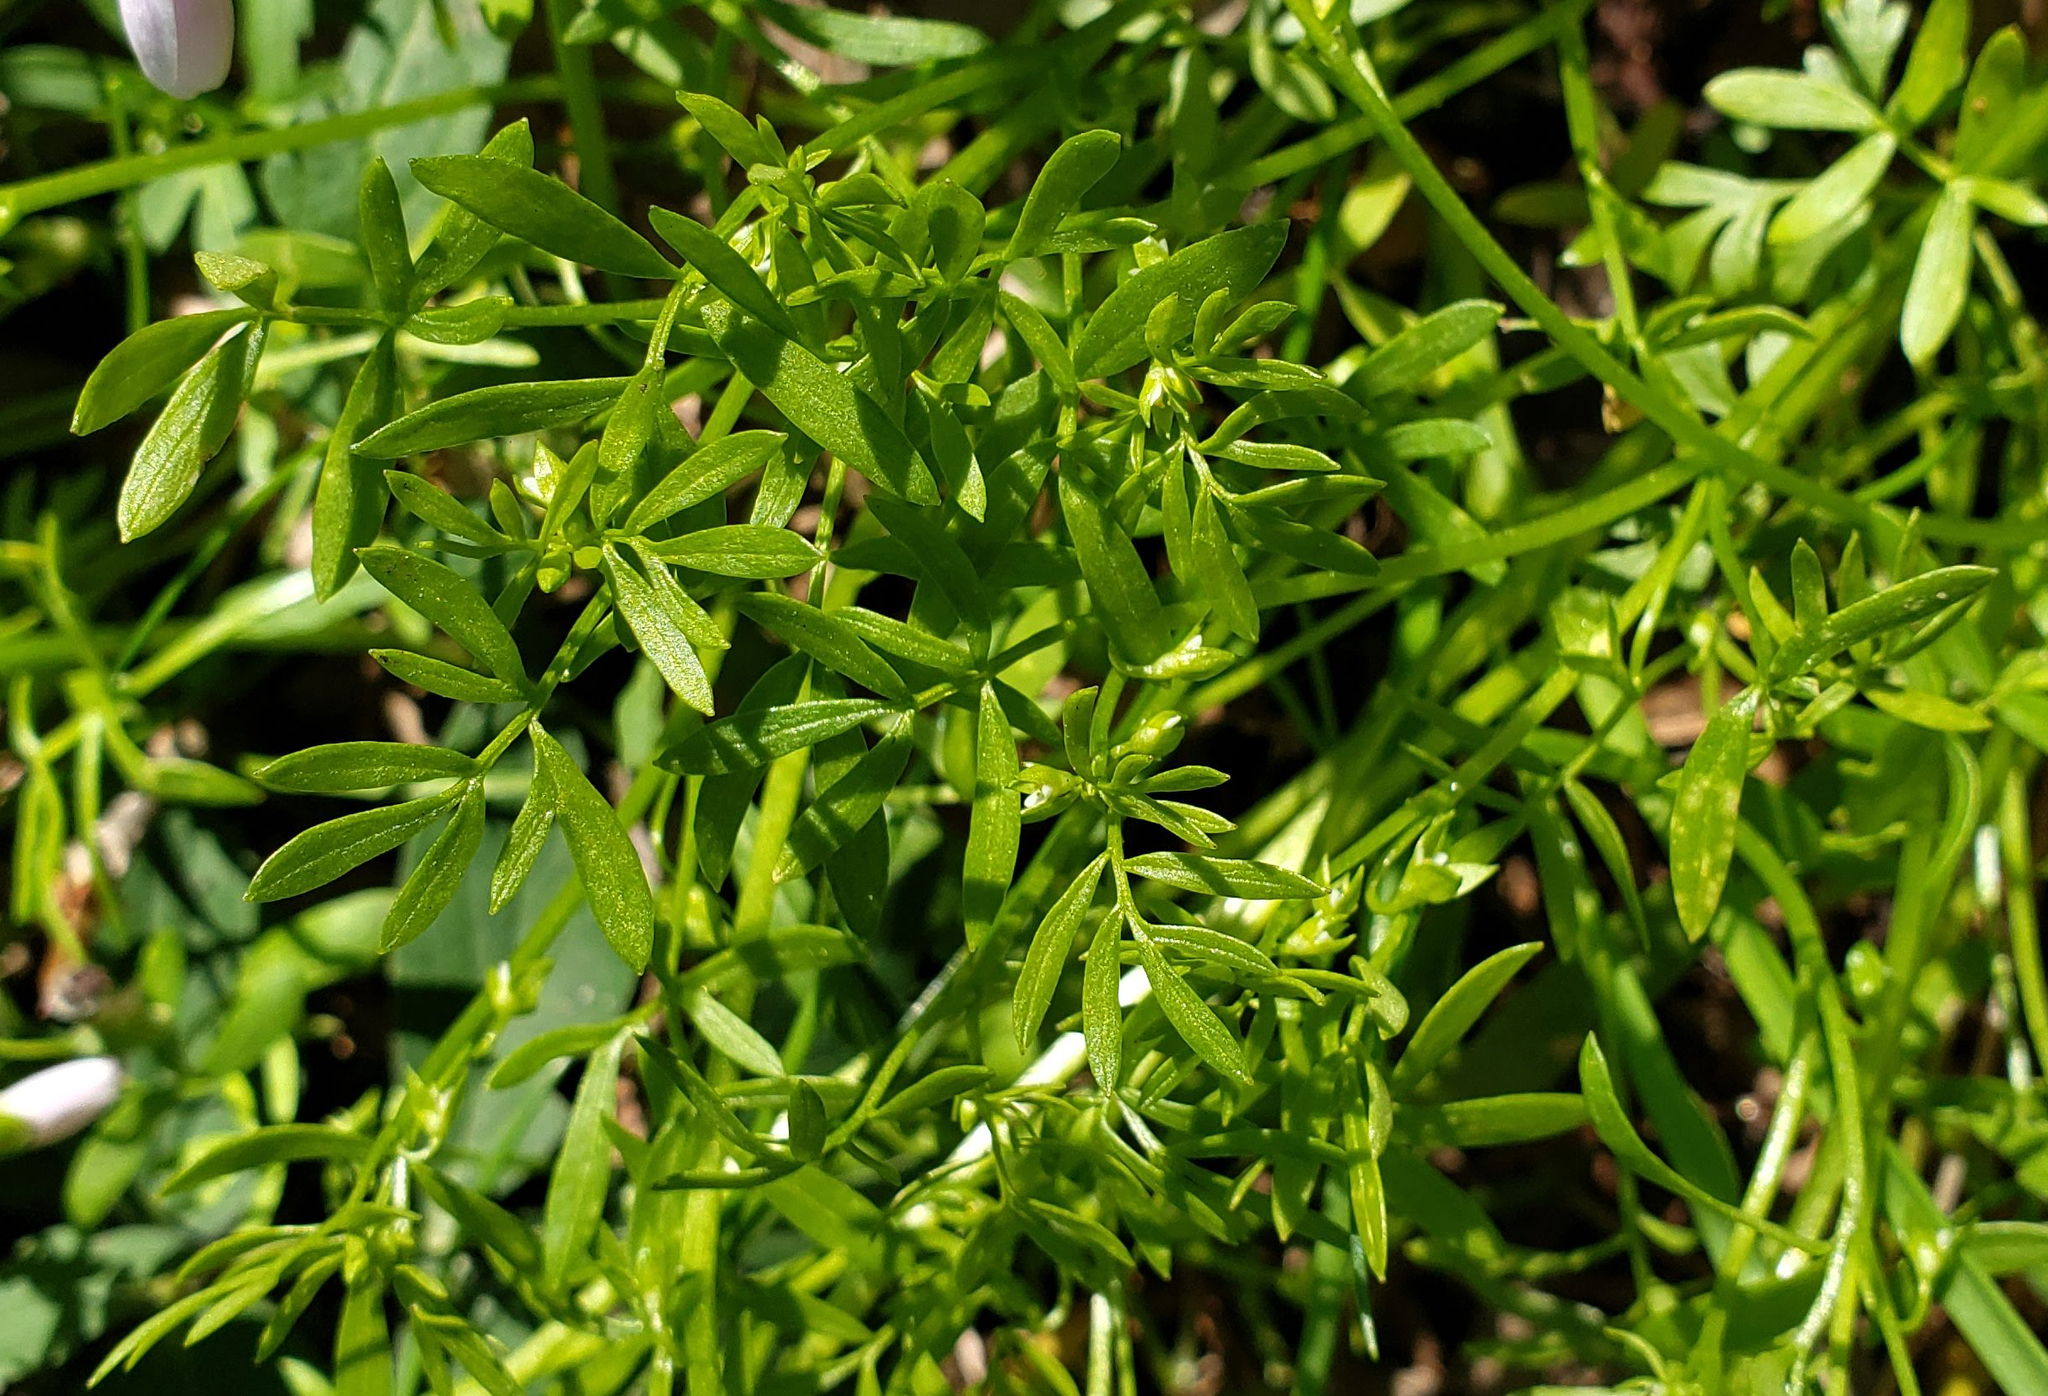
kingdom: Plantae
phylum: Tracheophyta
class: Magnoliopsida
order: Brassicales
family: Limnanthaceae
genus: Floerkea
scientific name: Floerkea proserpinacoides
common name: False mermaid
